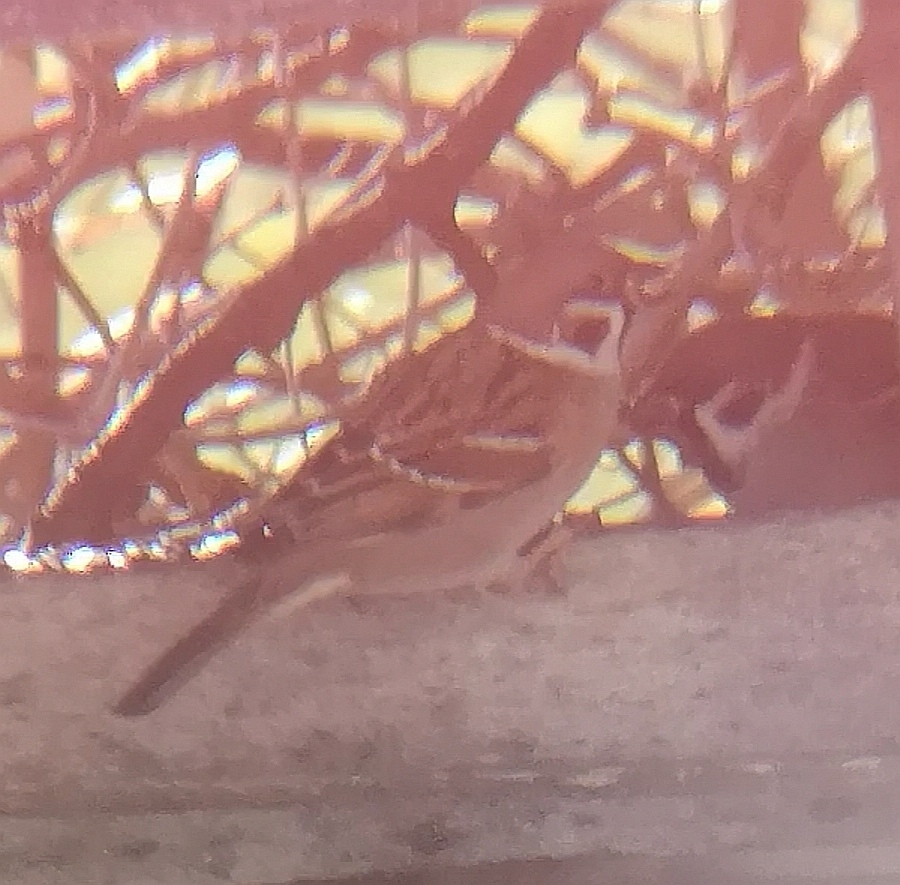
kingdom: Animalia
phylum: Chordata
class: Aves
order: Passeriformes
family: Passeridae
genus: Passer
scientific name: Passer montanus
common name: Eurasian tree sparrow
